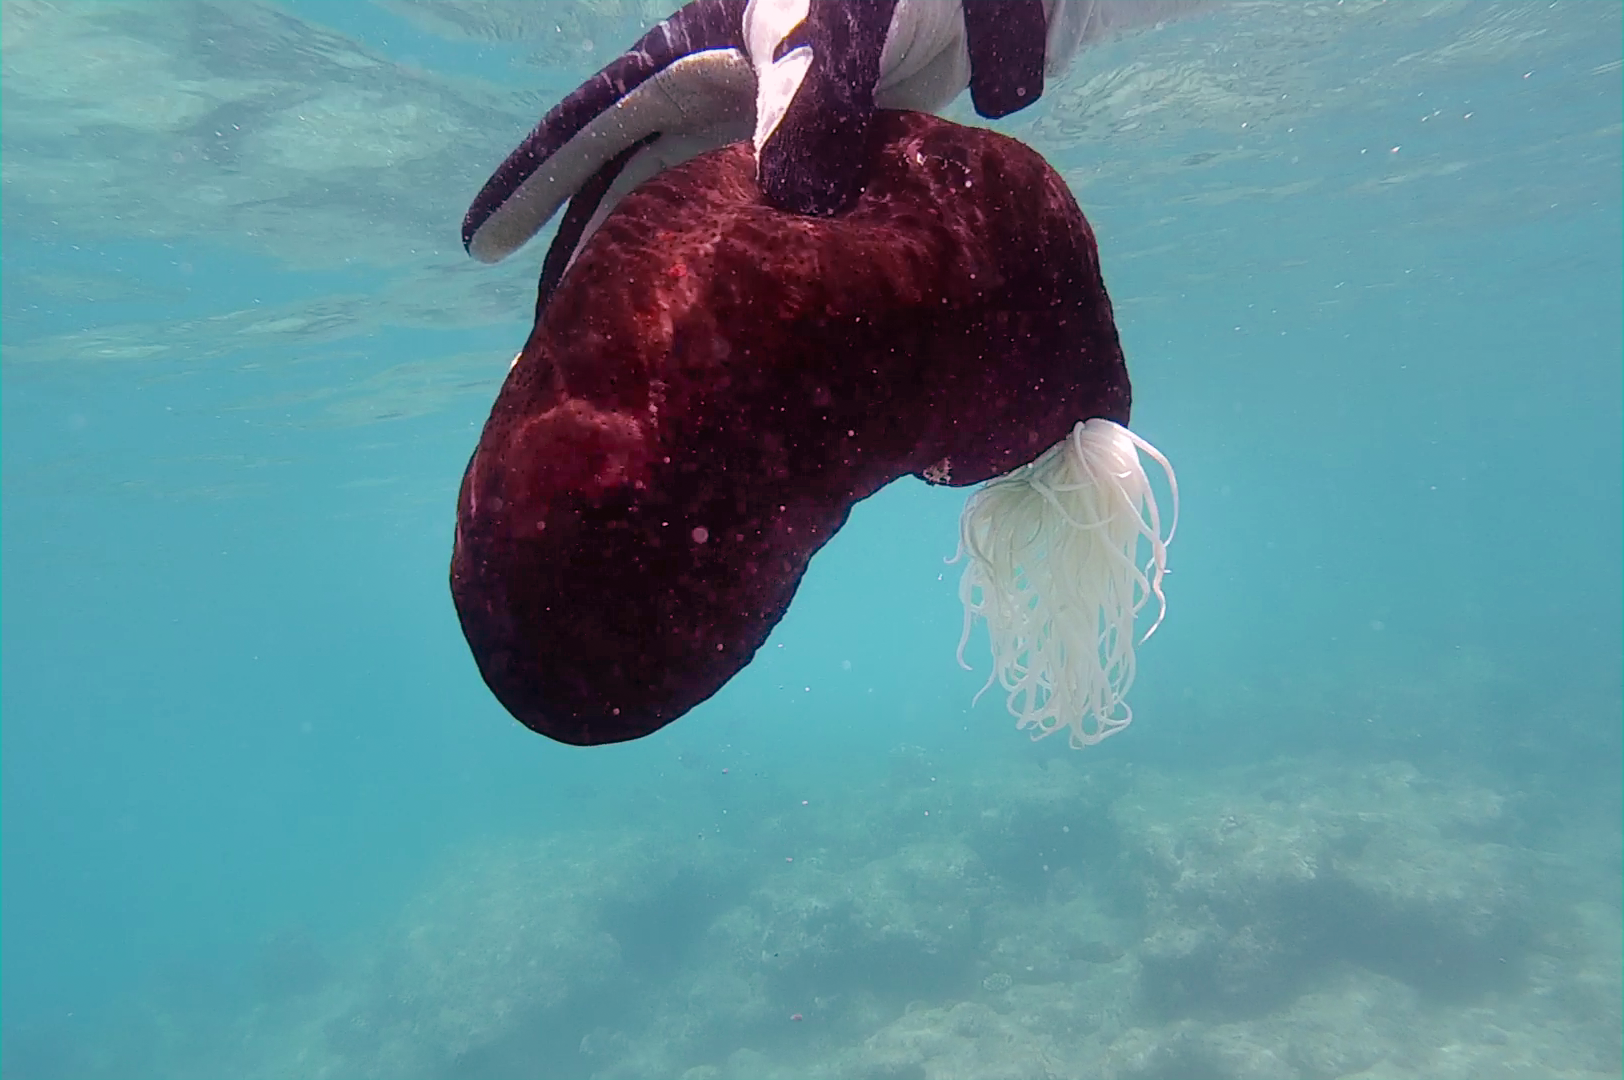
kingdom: Animalia
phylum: Echinodermata
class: Holothuroidea
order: Holothuriida
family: Holothuriidae
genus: Bohadschia
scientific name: Bohadschia atra
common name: Tigerfish
